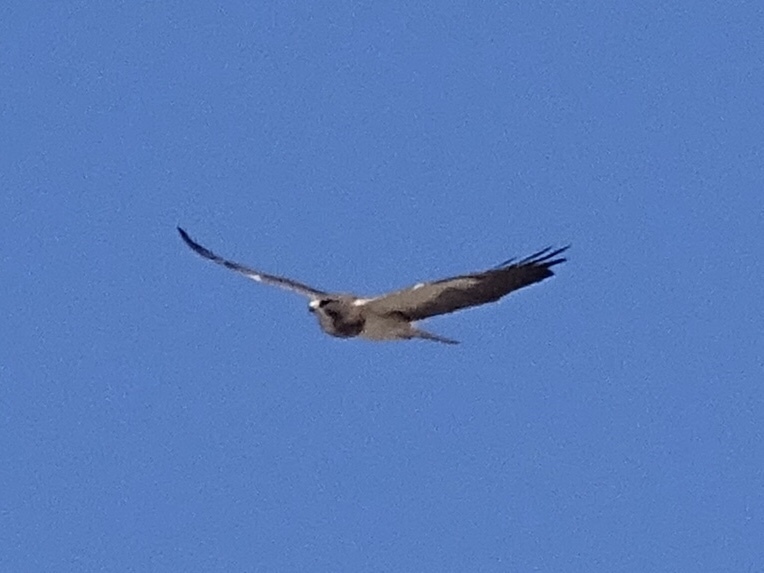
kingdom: Animalia
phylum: Chordata
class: Aves
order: Accipitriformes
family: Accipitridae
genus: Buteo
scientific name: Buteo swainsoni
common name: Swainson's hawk
